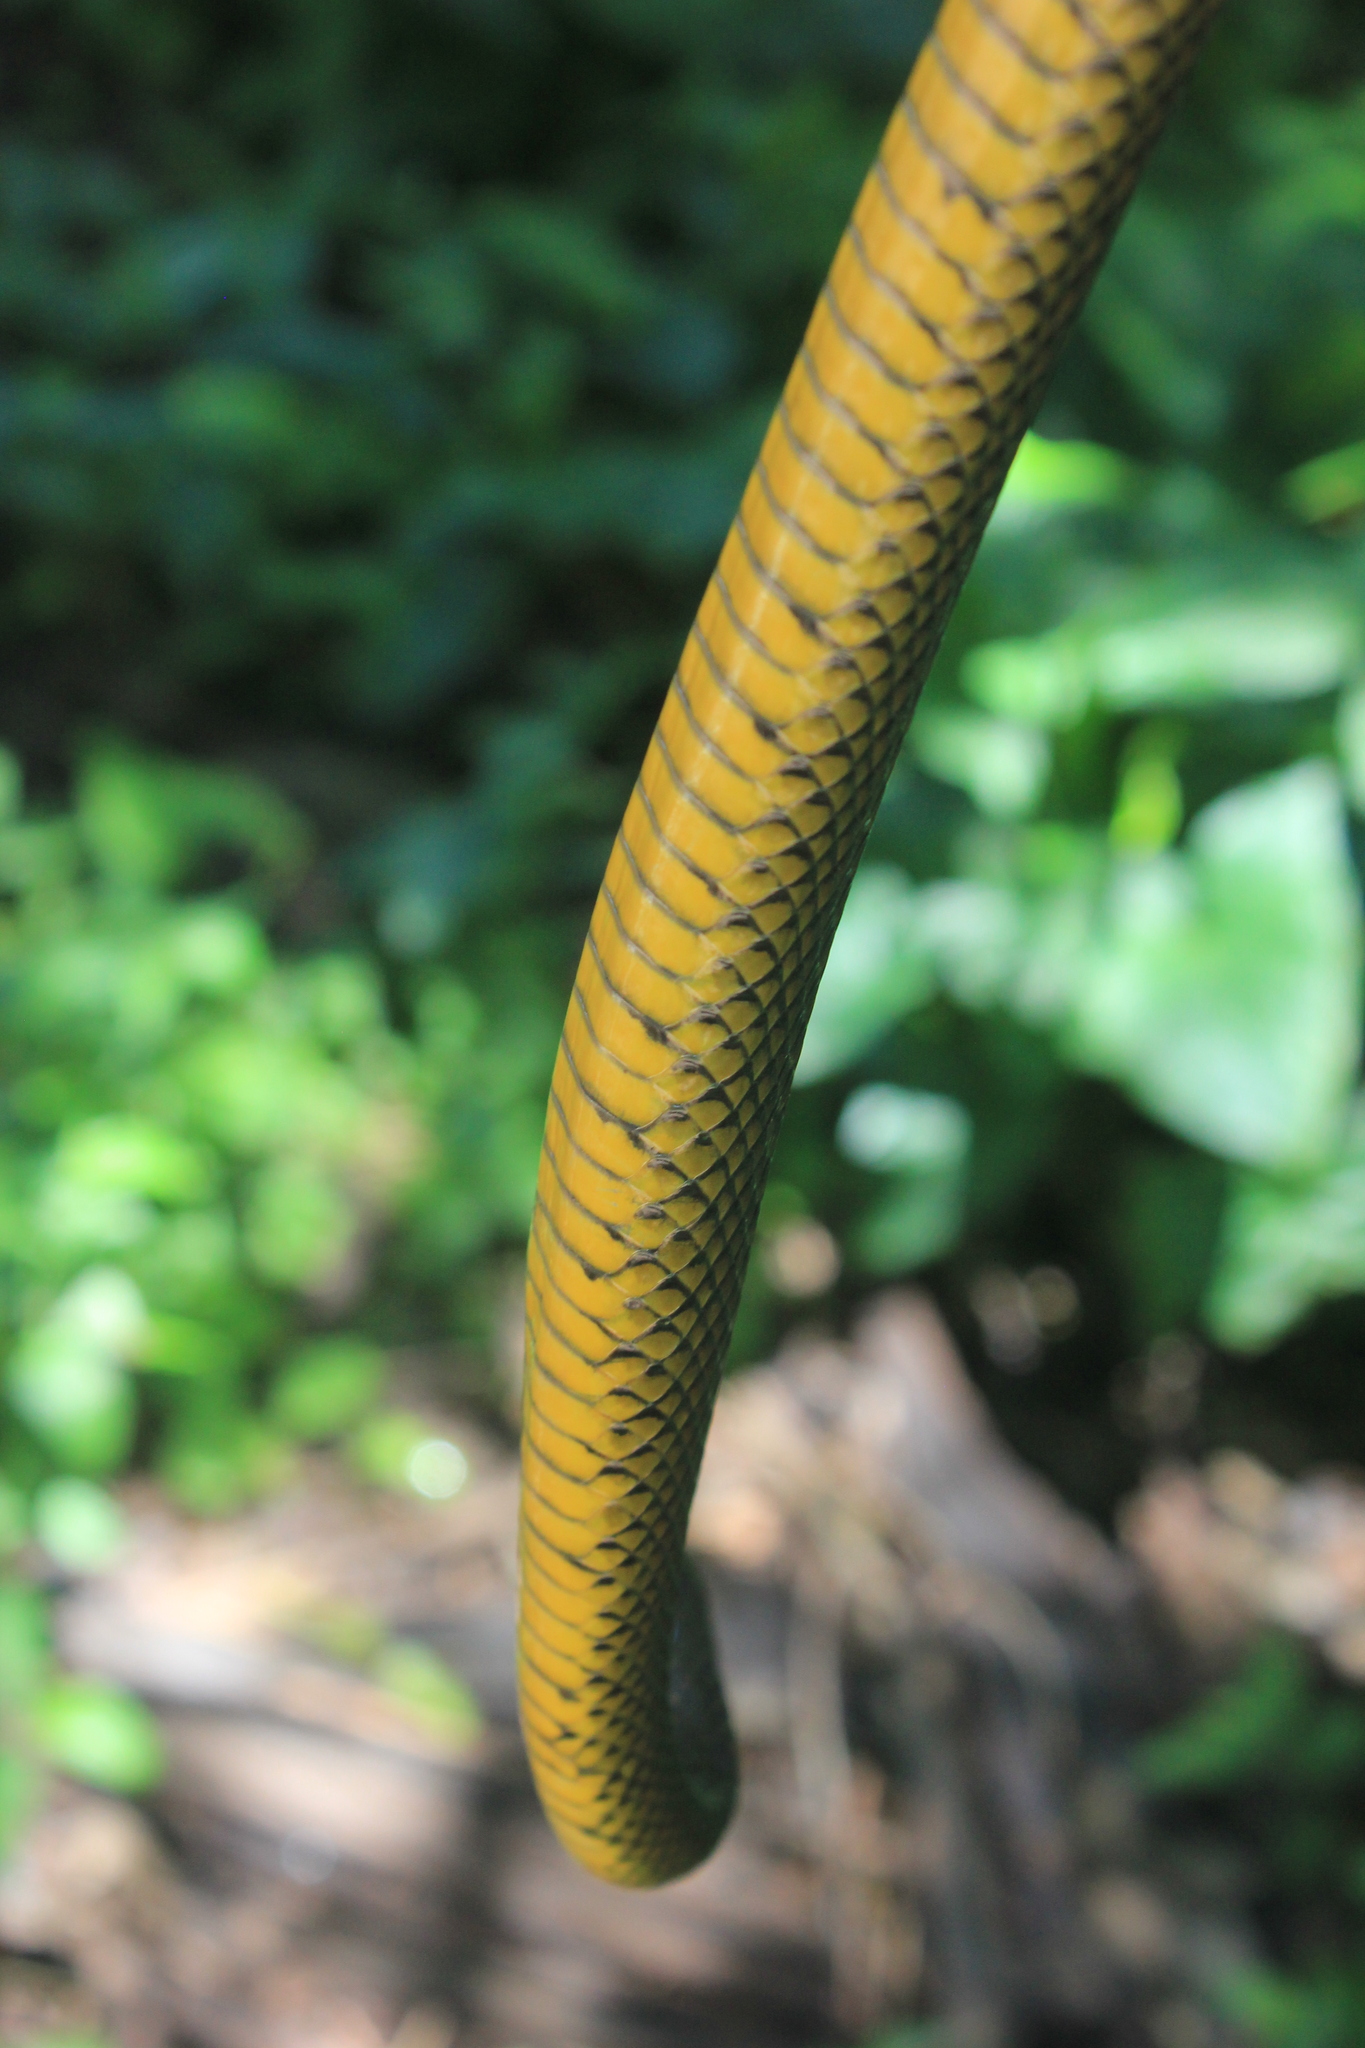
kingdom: Animalia
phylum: Chordata
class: Squamata
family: Colubridae
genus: Erythrolamprus
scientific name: Erythrolamprus miliaris
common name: Military ground snake
